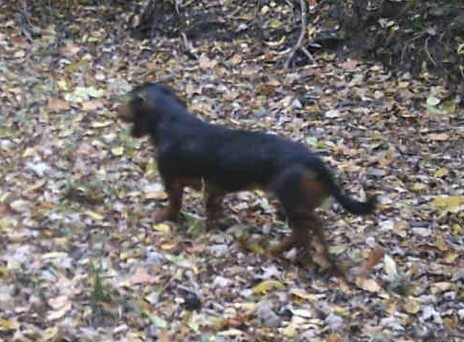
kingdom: Animalia
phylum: Chordata
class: Mammalia
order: Carnivora
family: Canidae
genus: Canis
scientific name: Canis lupus
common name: Gray wolf
